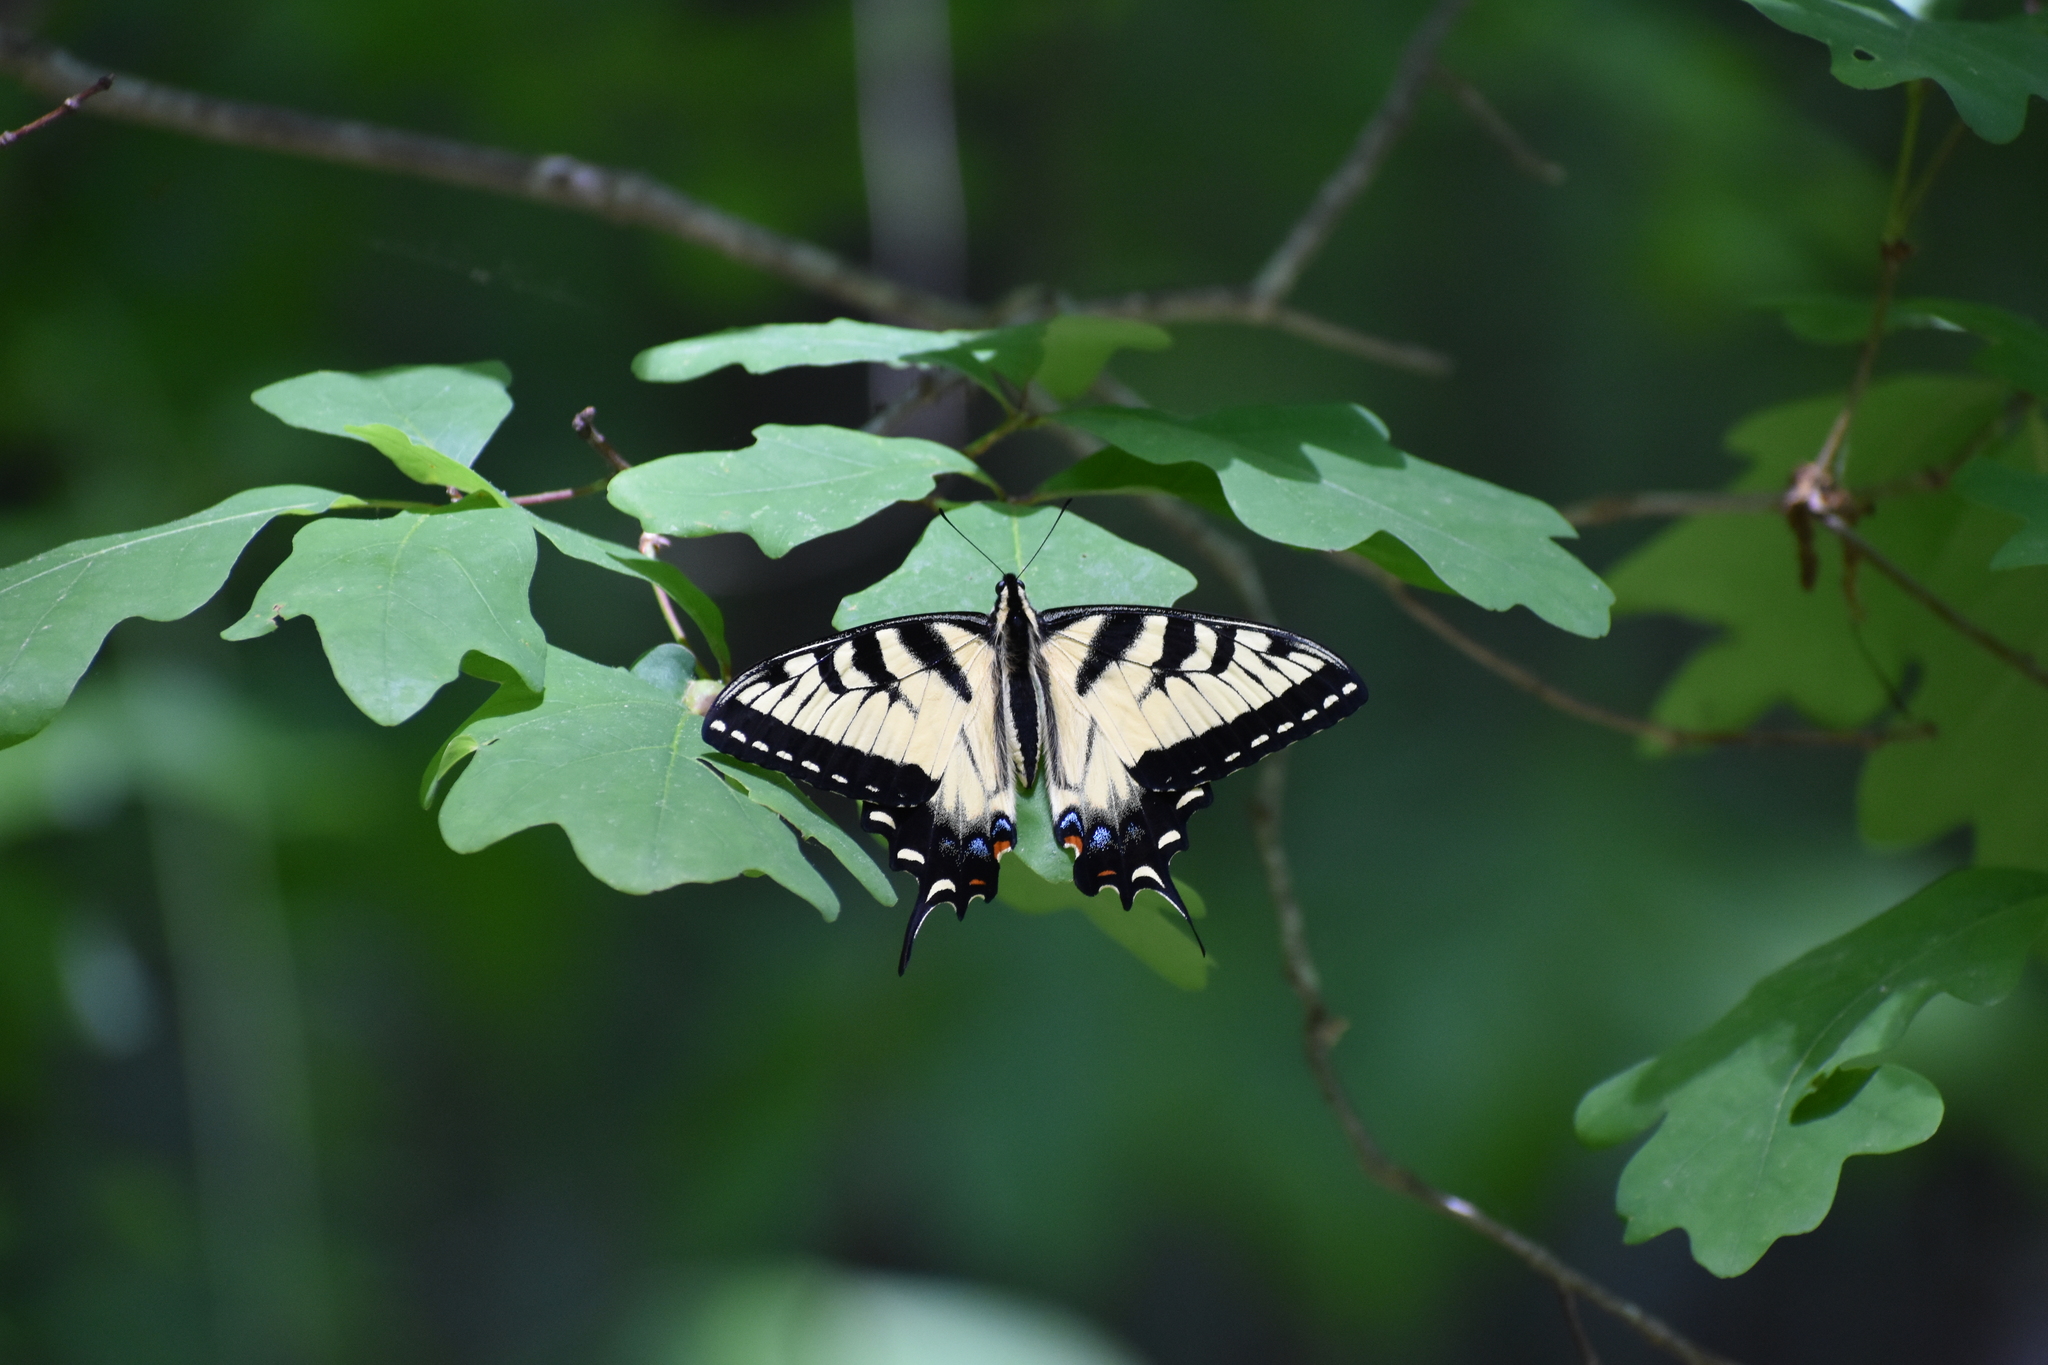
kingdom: Animalia
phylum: Arthropoda
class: Insecta
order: Lepidoptera
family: Papilionidae
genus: Papilio
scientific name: Papilio glaucus
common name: Tiger swallowtail
